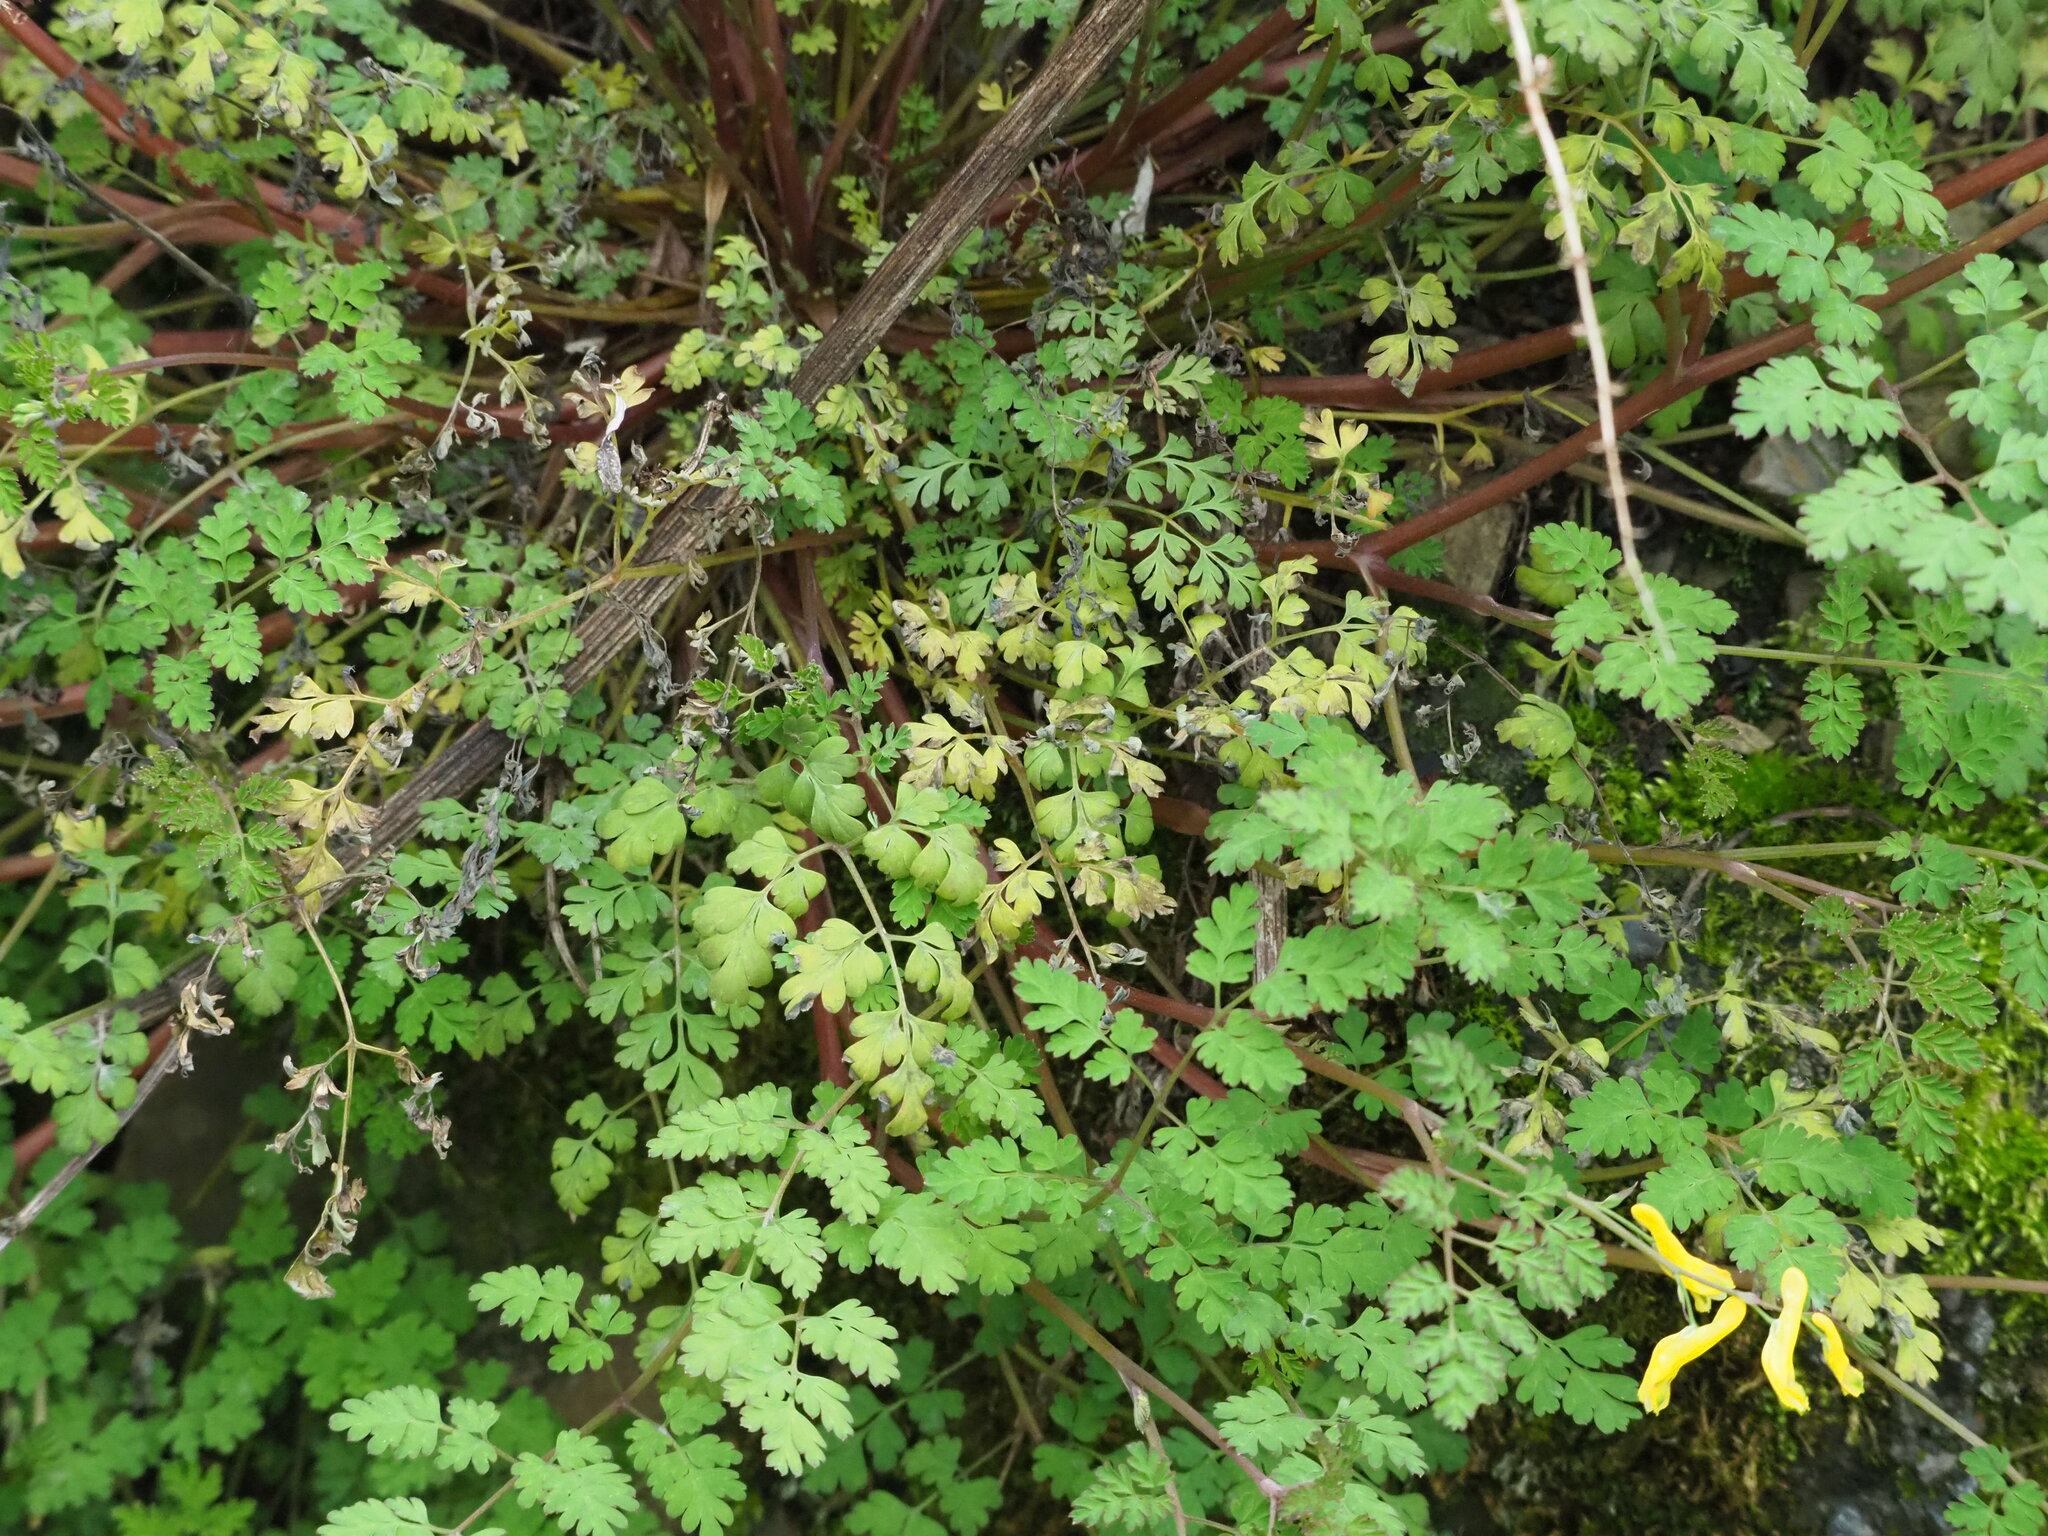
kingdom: Plantae
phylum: Tracheophyta
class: Magnoliopsida
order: Ranunculales
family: Papaveraceae
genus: Corydalis
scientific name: Corydalis pallida
